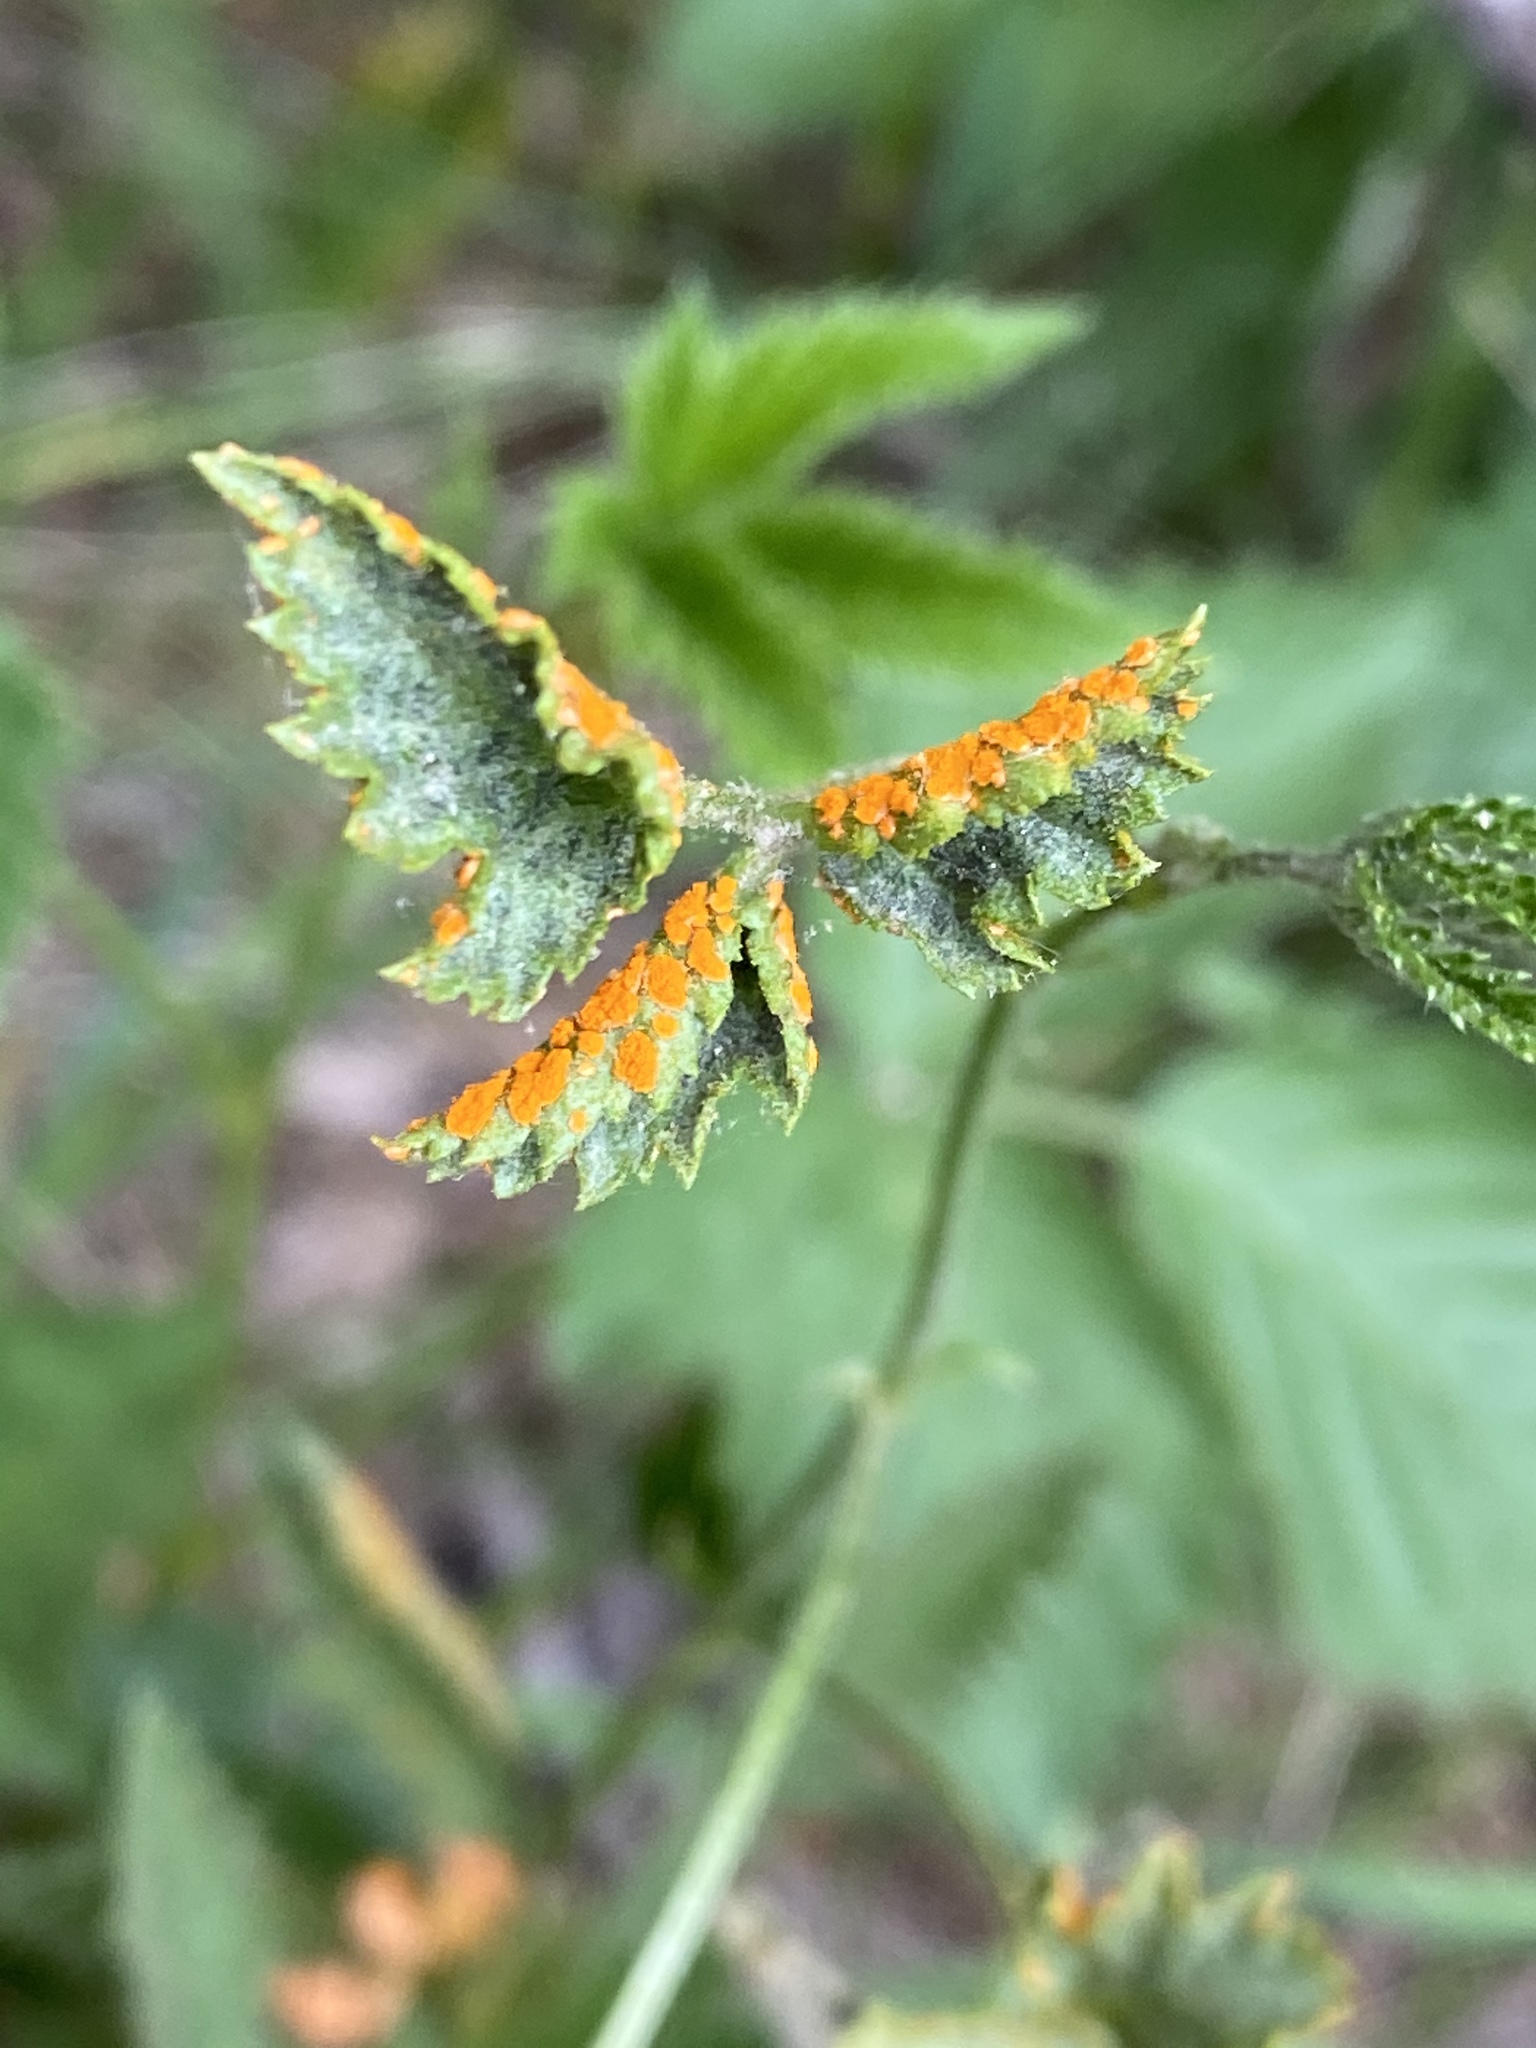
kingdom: Fungi
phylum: Basidiomycota
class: Pucciniomycetes
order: Pucciniales
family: Phragmidiaceae
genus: Arthuriomyces
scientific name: Arthuriomyces peckianus
